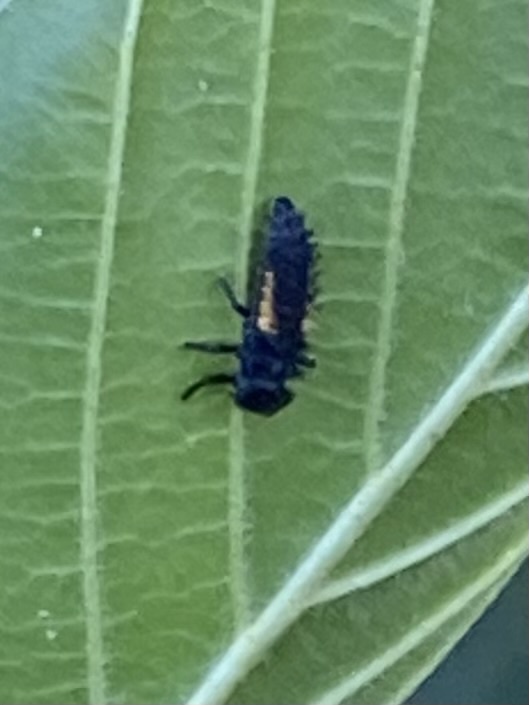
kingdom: Animalia
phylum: Arthropoda
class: Insecta
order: Coleoptera
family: Coccinellidae
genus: Harmonia
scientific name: Harmonia axyridis
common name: Harlequin ladybird
